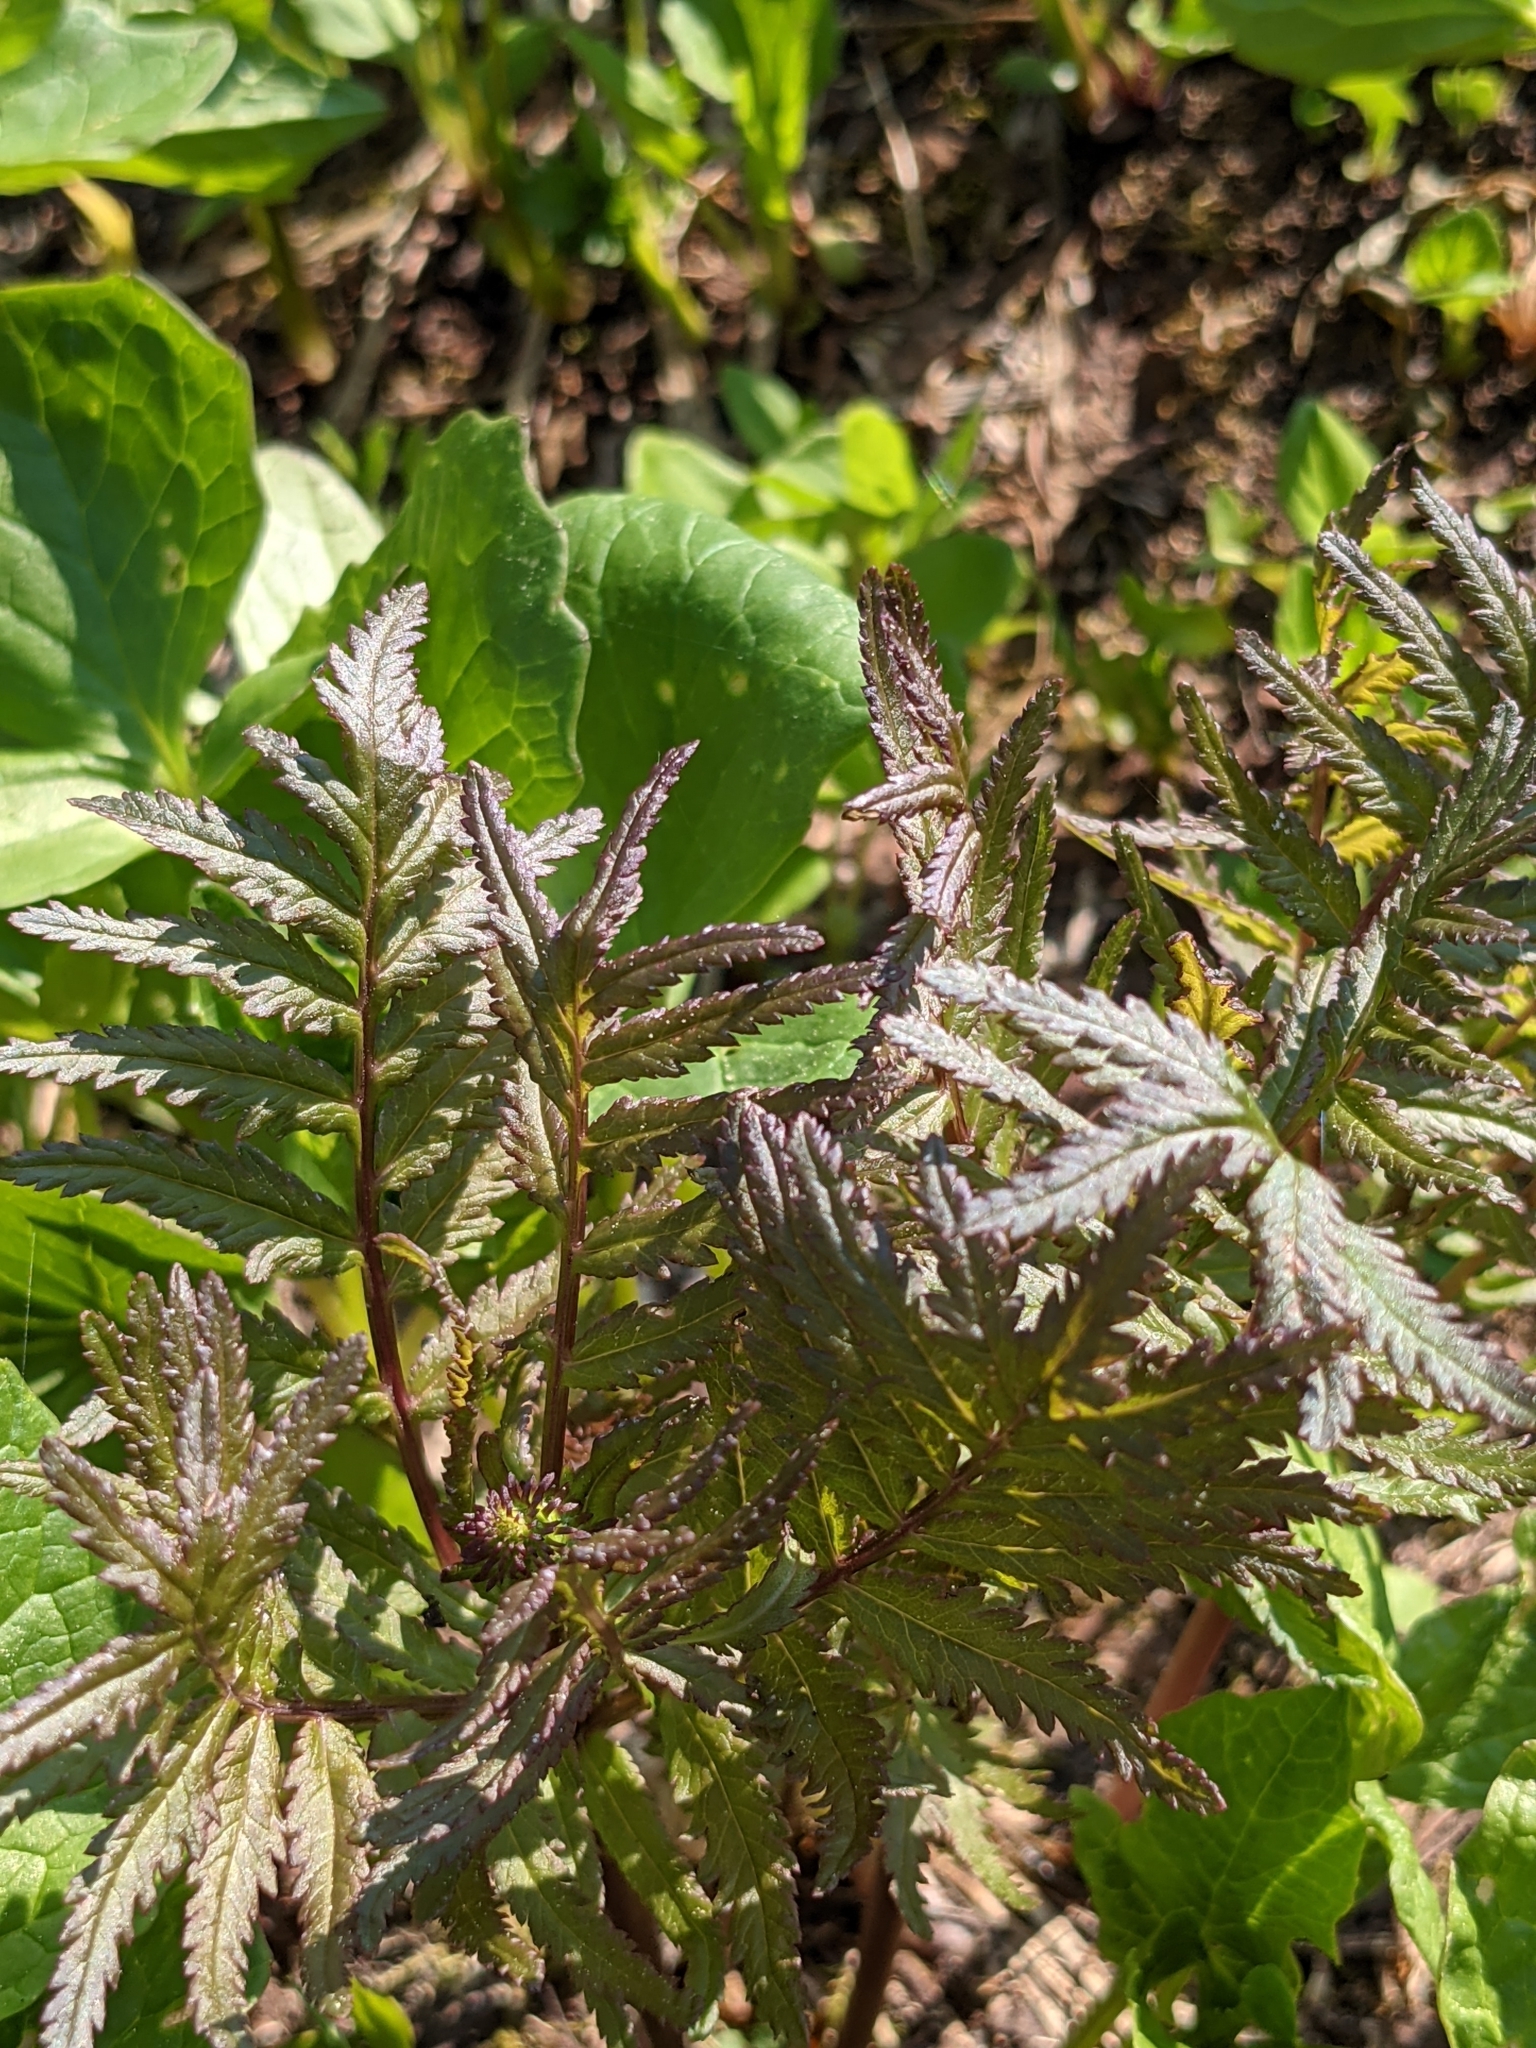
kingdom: Plantae
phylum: Tracheophyta
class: Magnoliopsida
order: Lamiales
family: Orobanchaceae
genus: Pedicularis
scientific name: Pedicularis bracteosa
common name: Bracted lousewort
